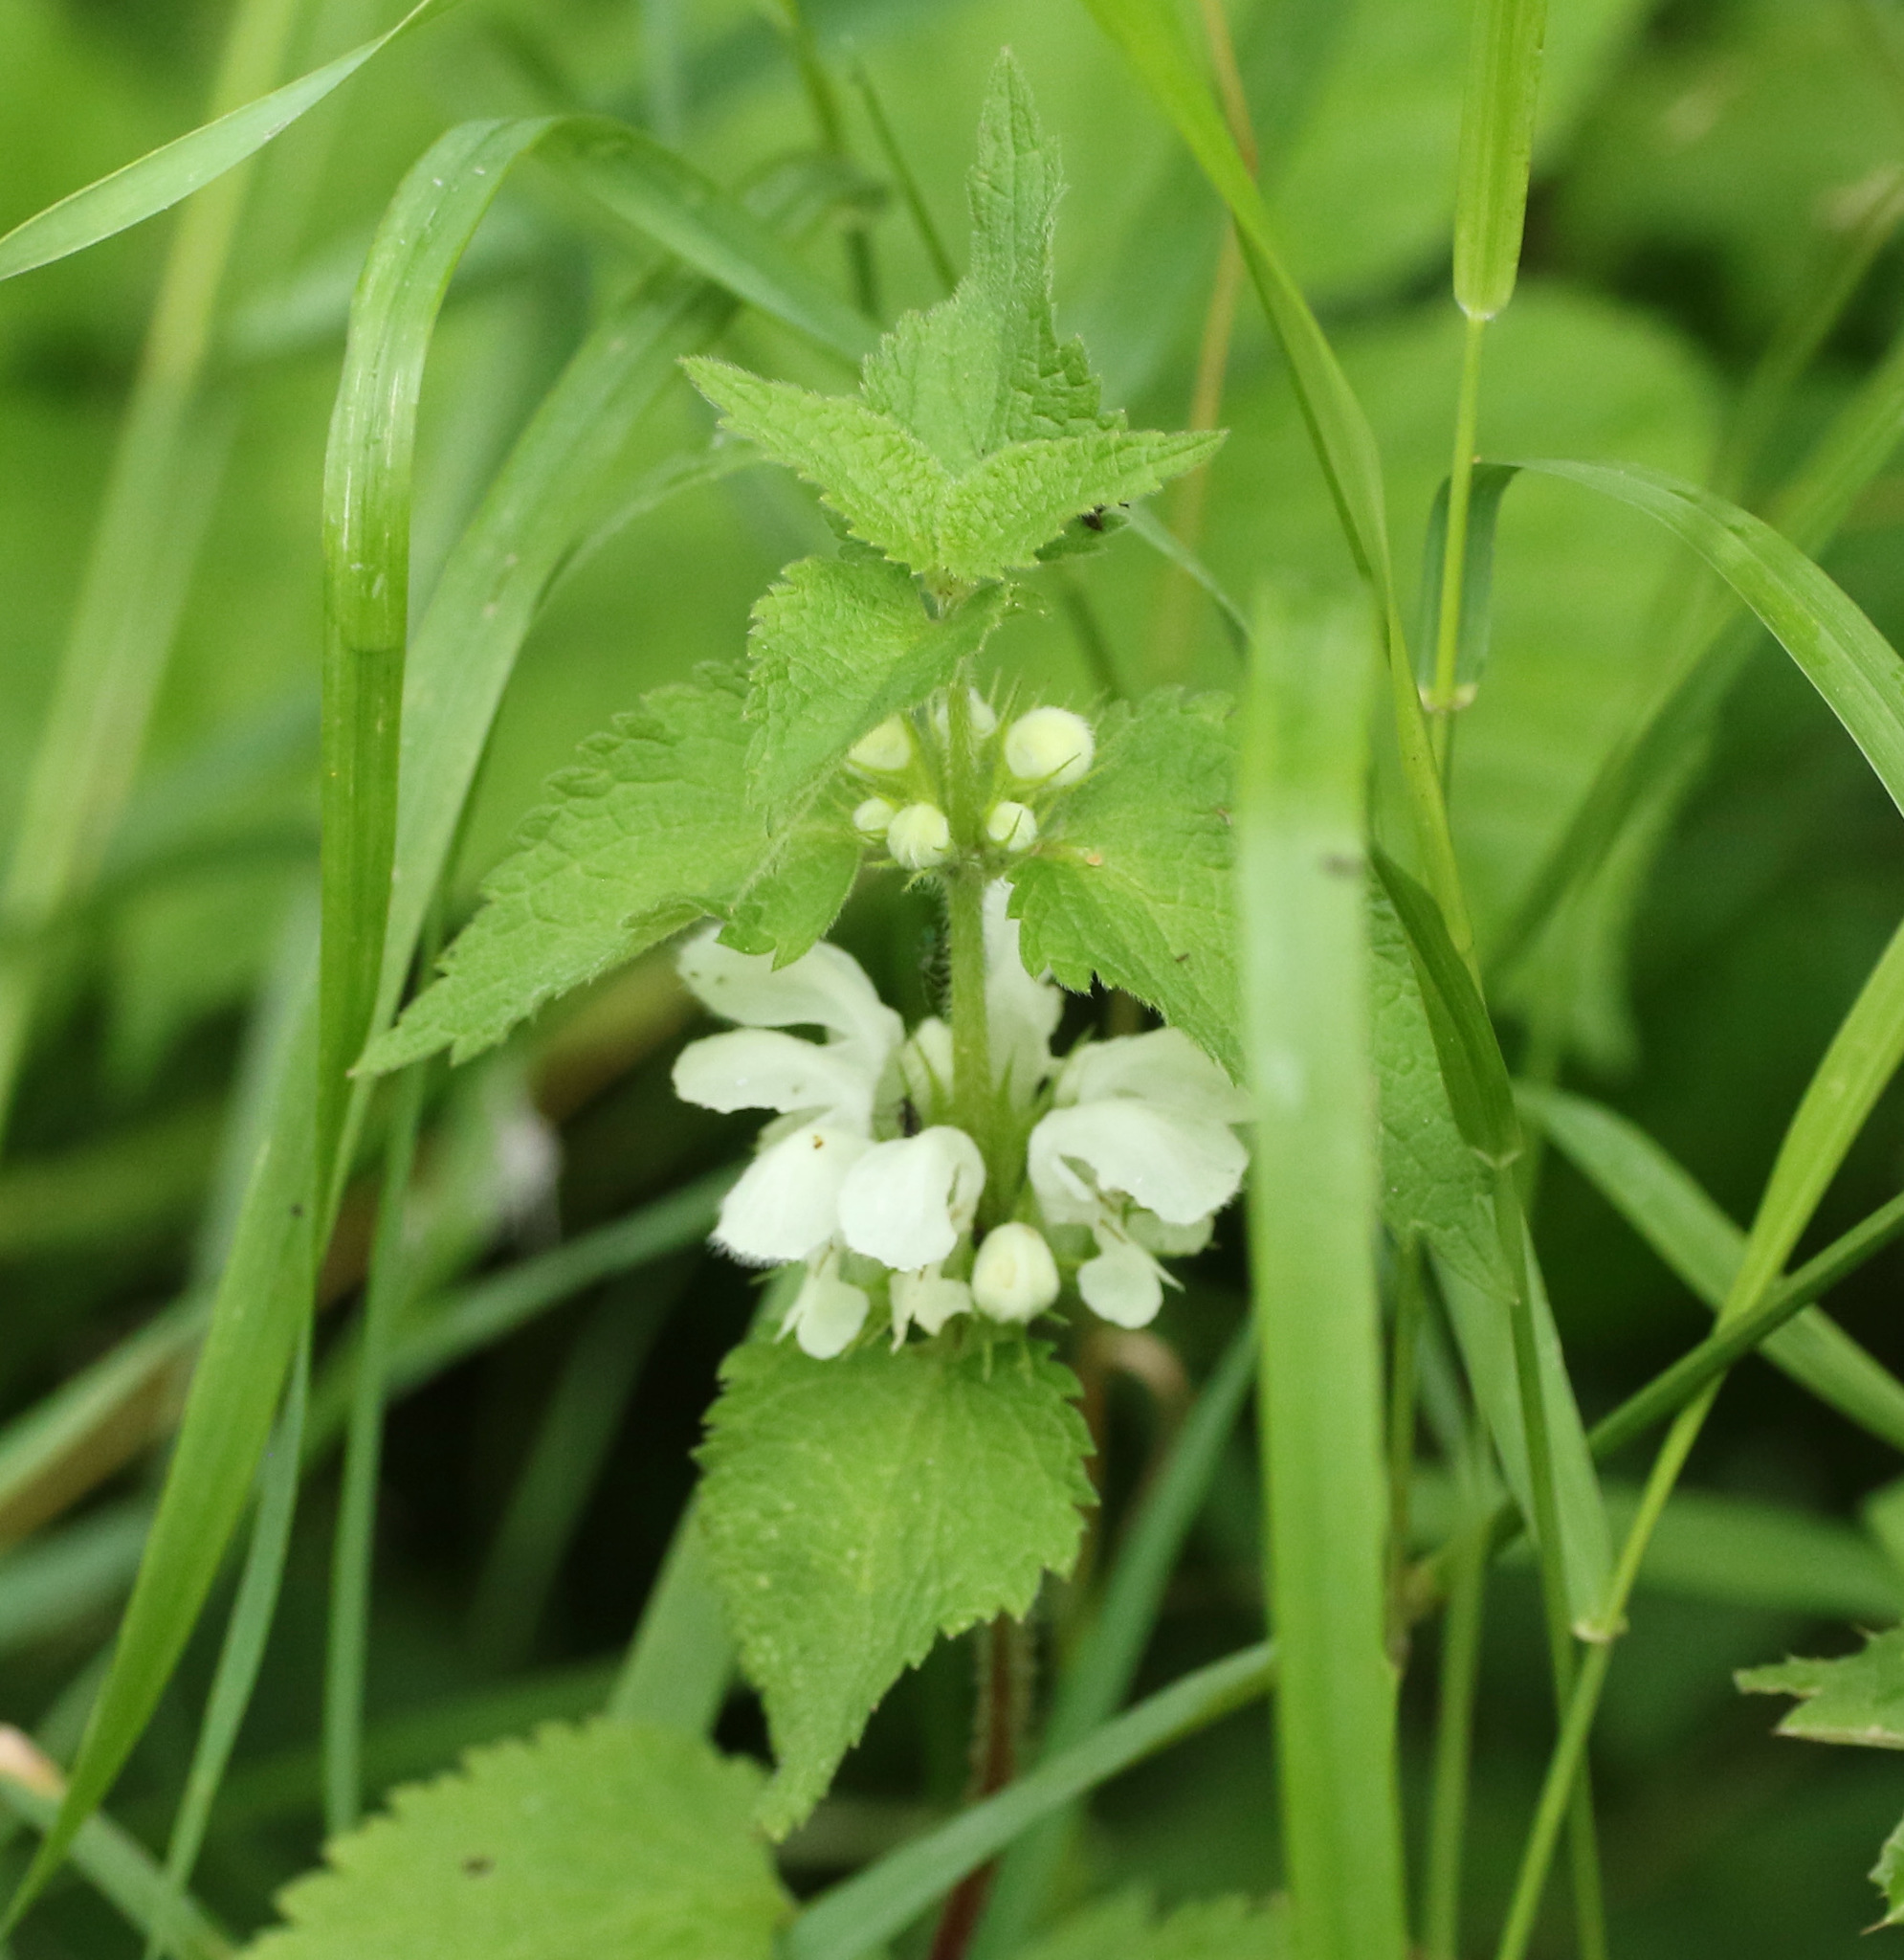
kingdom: Plantae
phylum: Tracheophyta
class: Magnoliopsida
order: Lamiales
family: Lamiaceae
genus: Lamium
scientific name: Lamium album
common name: White dead-nettle
